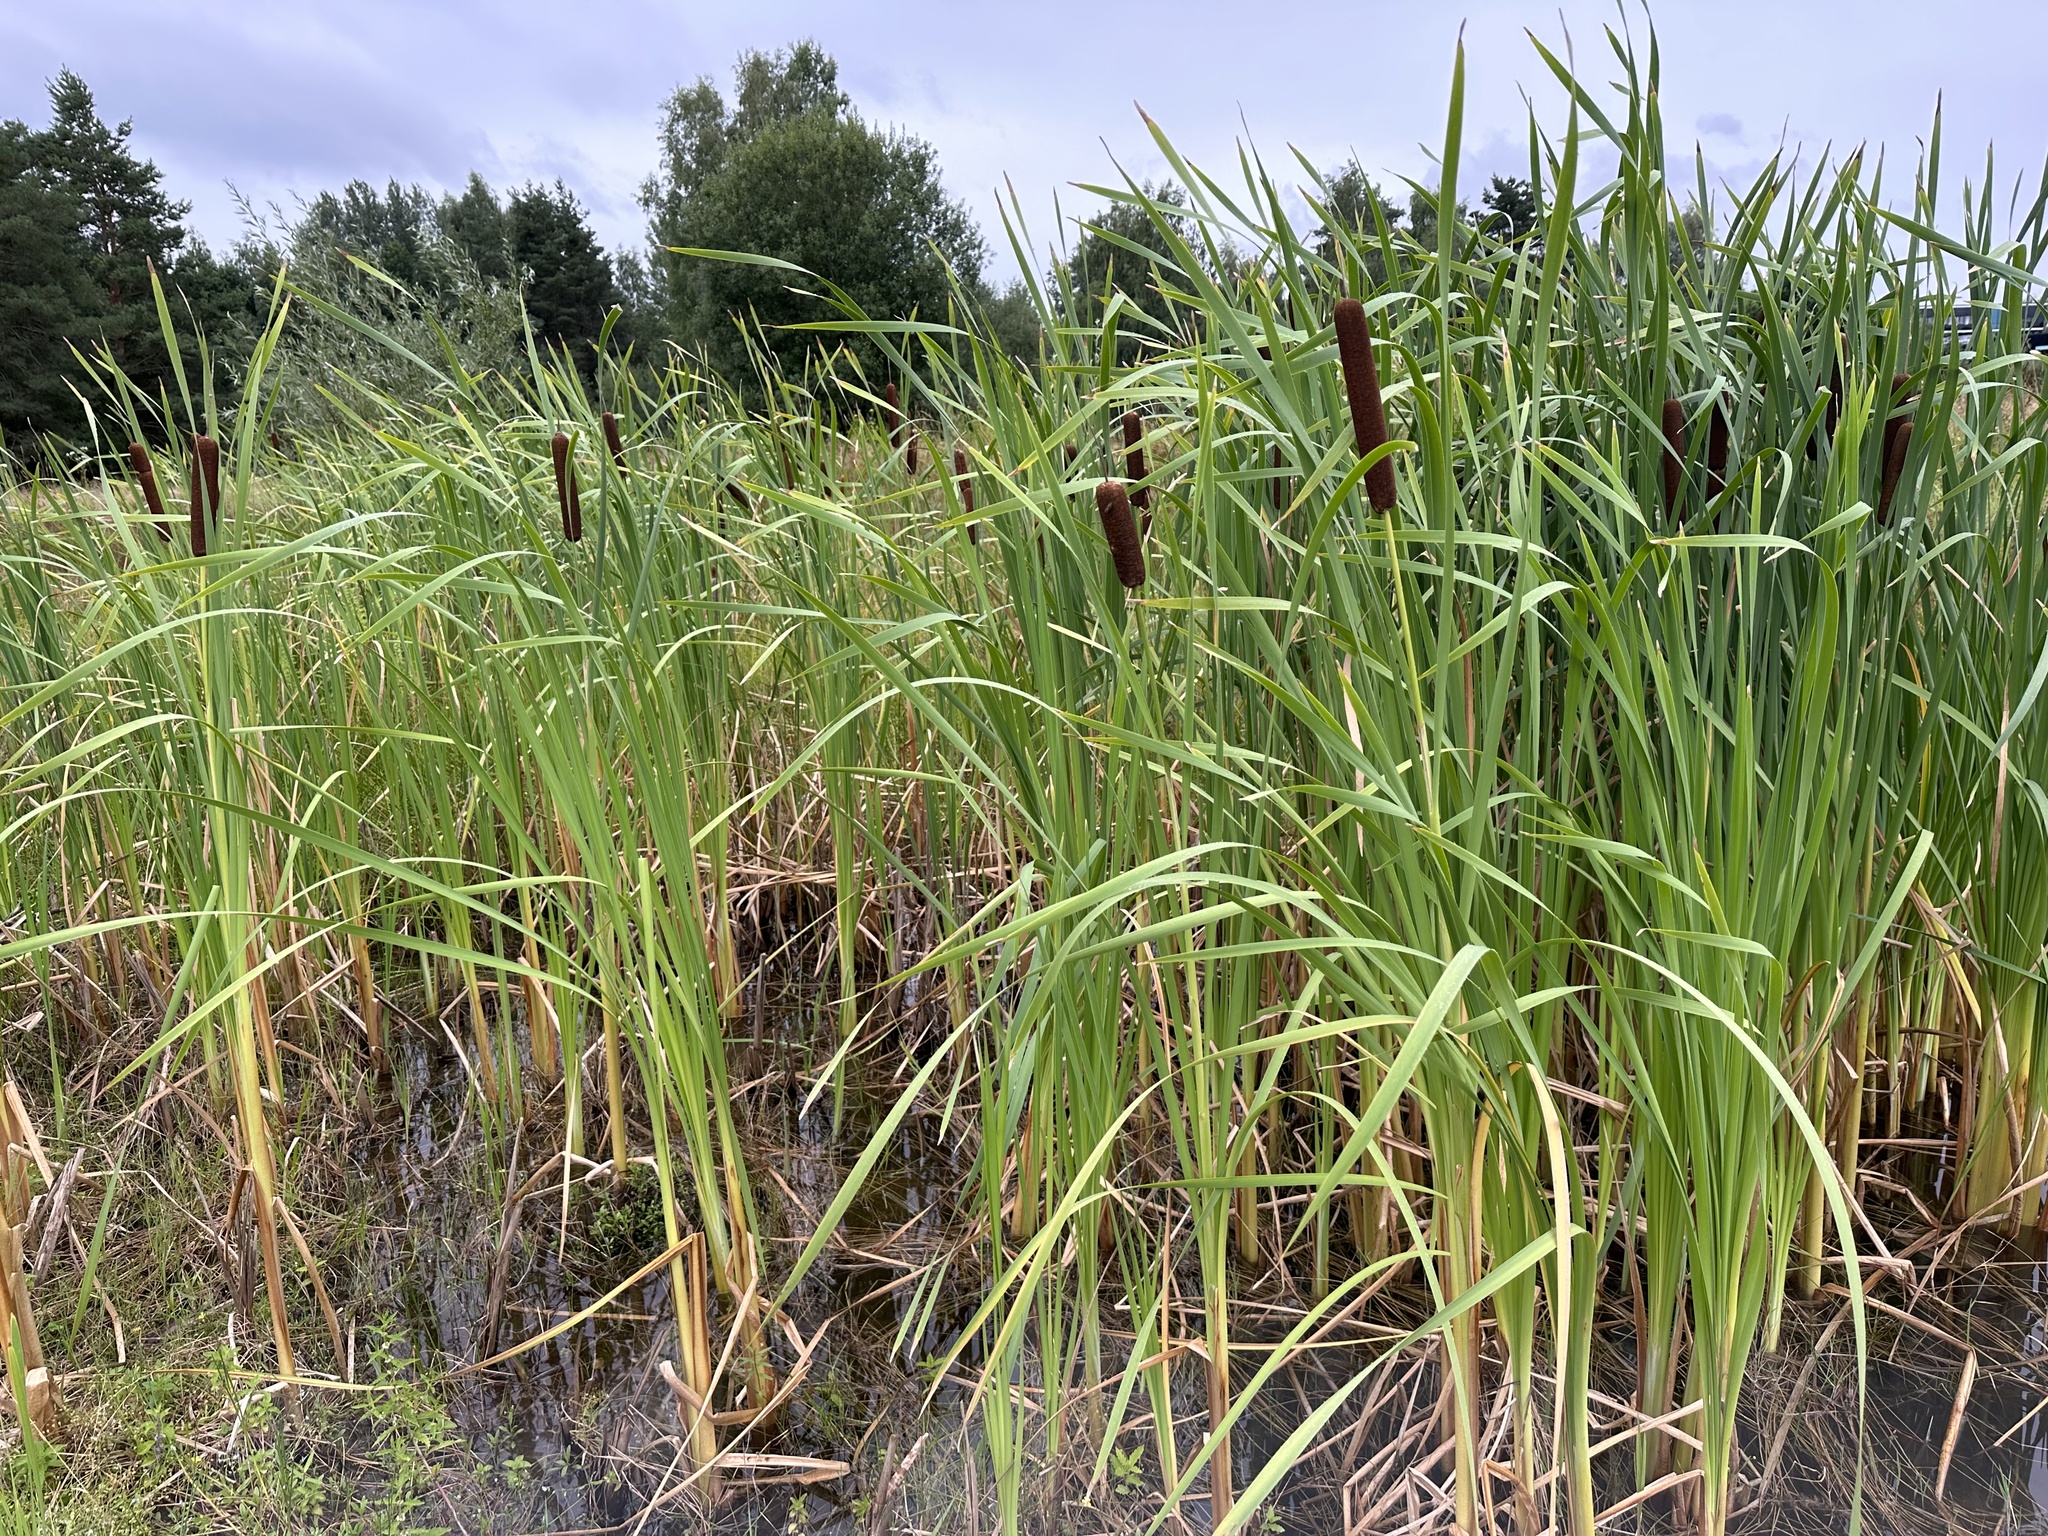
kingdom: Plantae
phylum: Tracheophyta
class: Liliopsida
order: Poales
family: Typhaceae
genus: Typha
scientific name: Typha latifolia
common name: Broadleaf cattail
